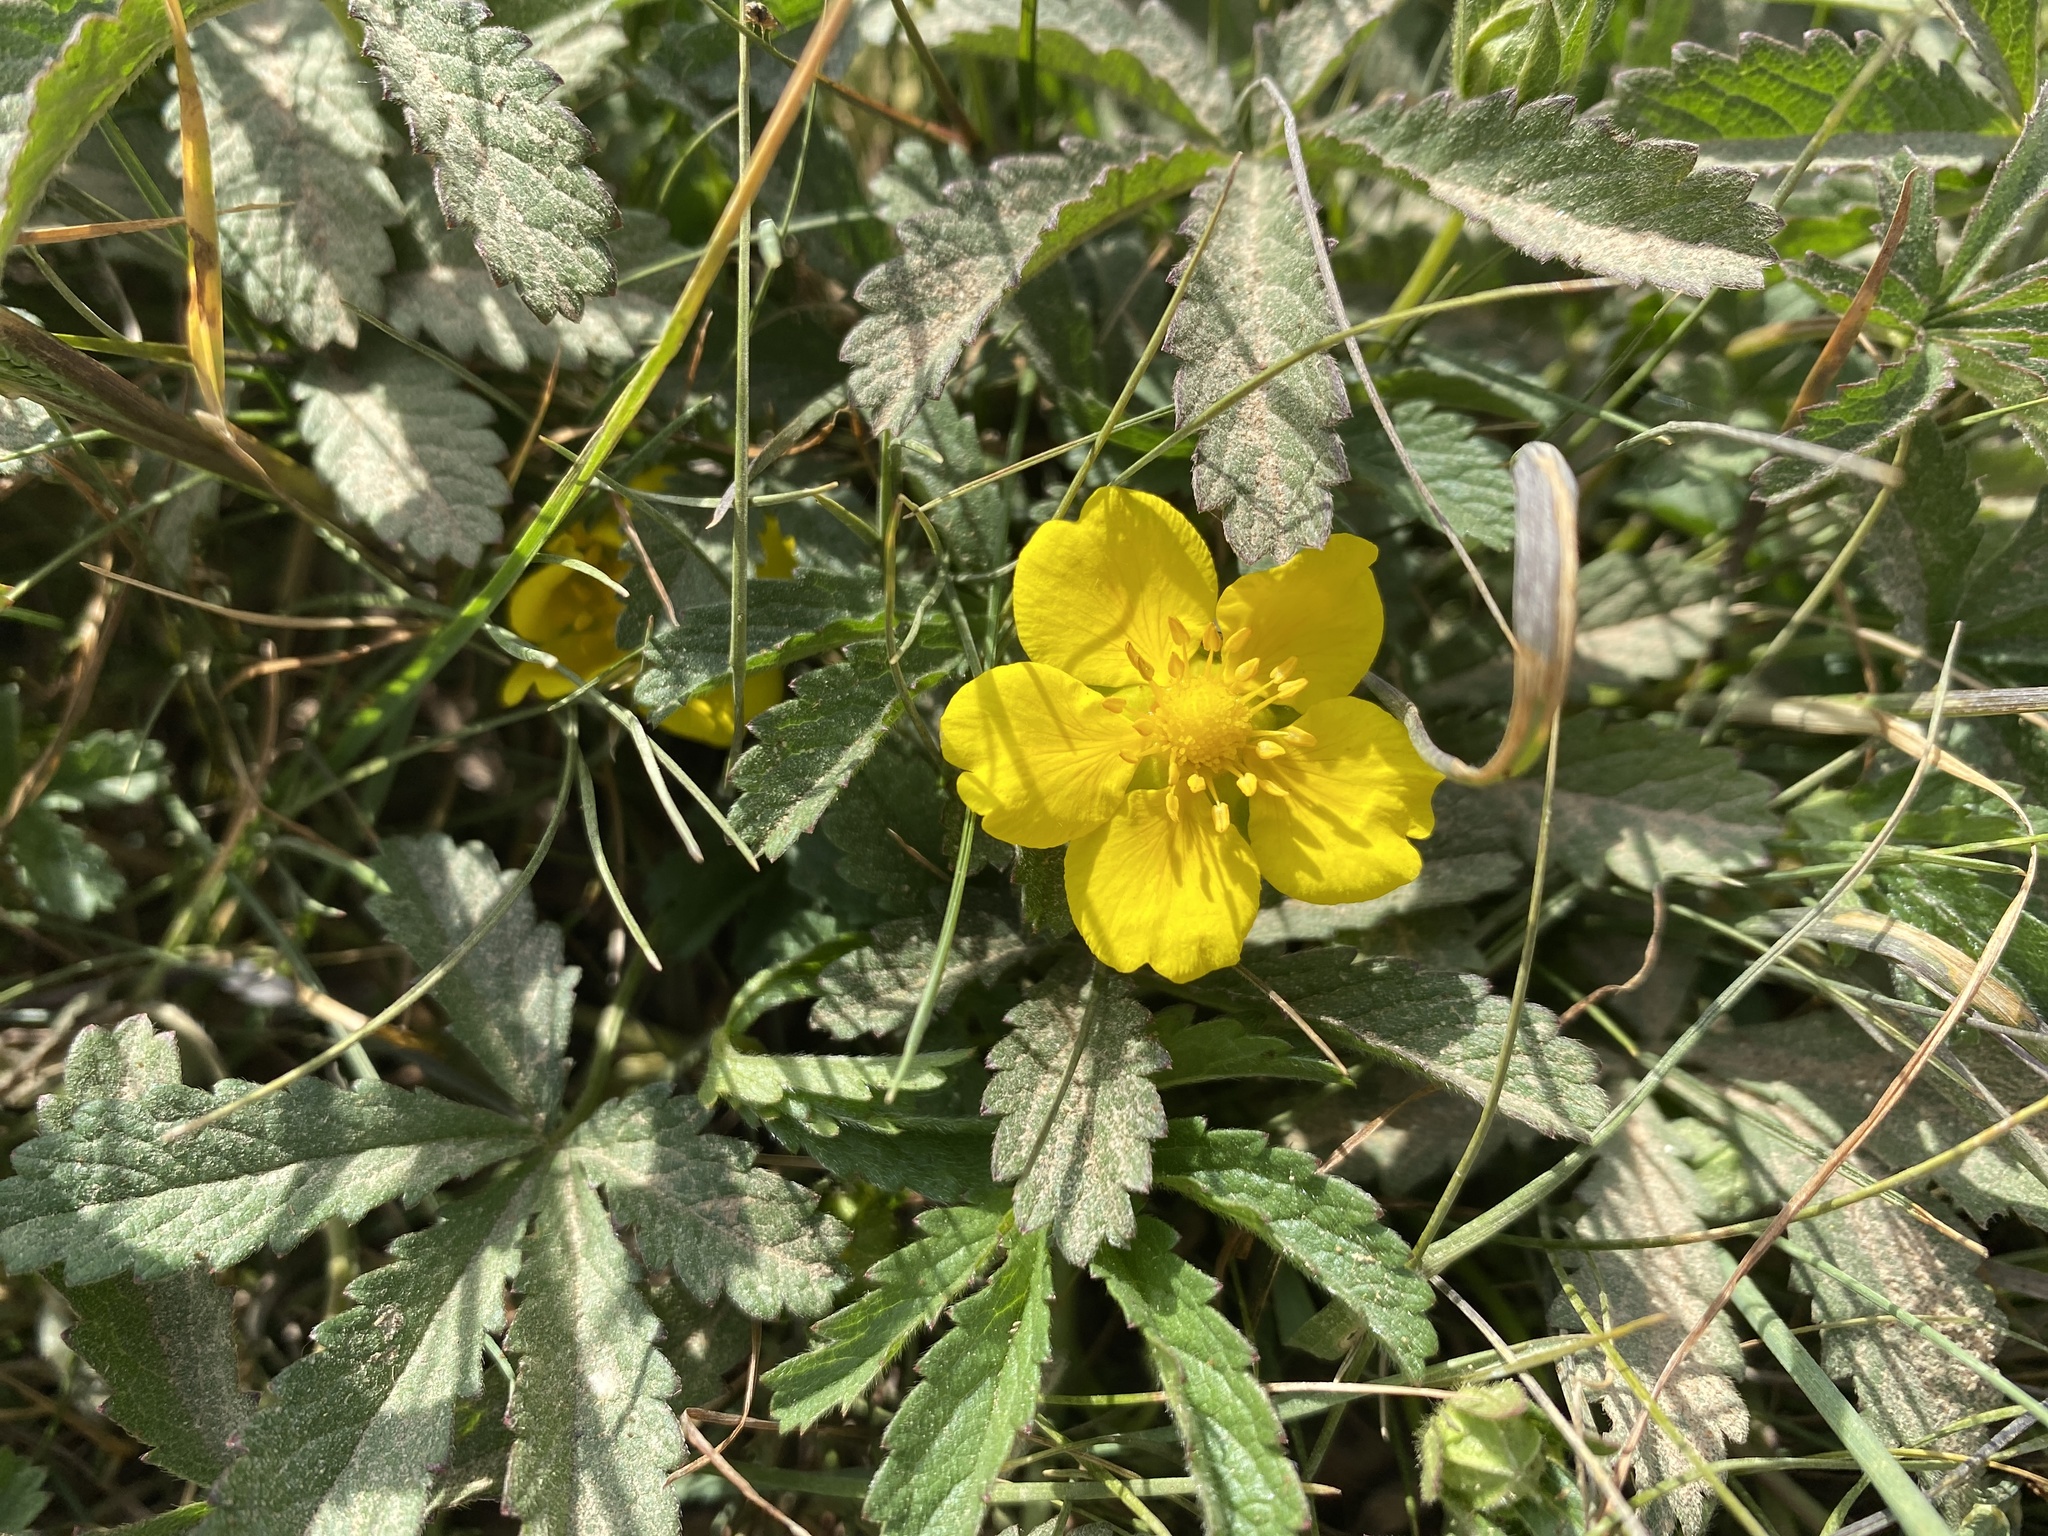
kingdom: Plantae
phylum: Tracheophyta
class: Magnoliopsida
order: Rosales
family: Rosaceae
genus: Potentilla
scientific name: Potentilla reptans
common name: Creeping cinquefoil
